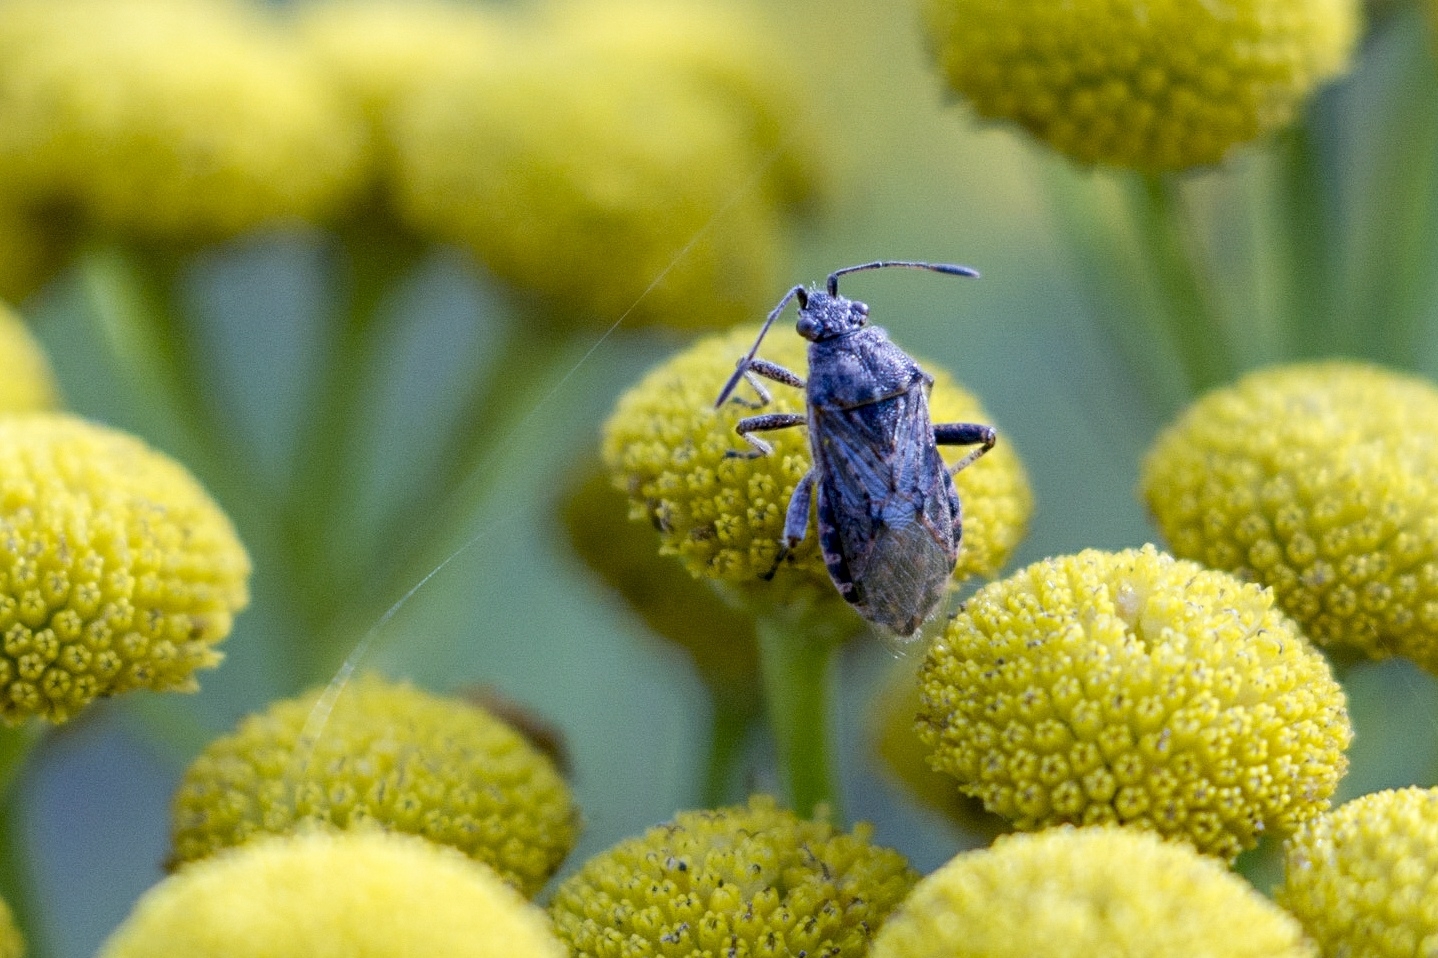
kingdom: Animalia
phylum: Arthropoda
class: Insecta
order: Hemiptera
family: Rhopalidae
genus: Stictopleurus
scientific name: Stictopleurus punctatonervosus
